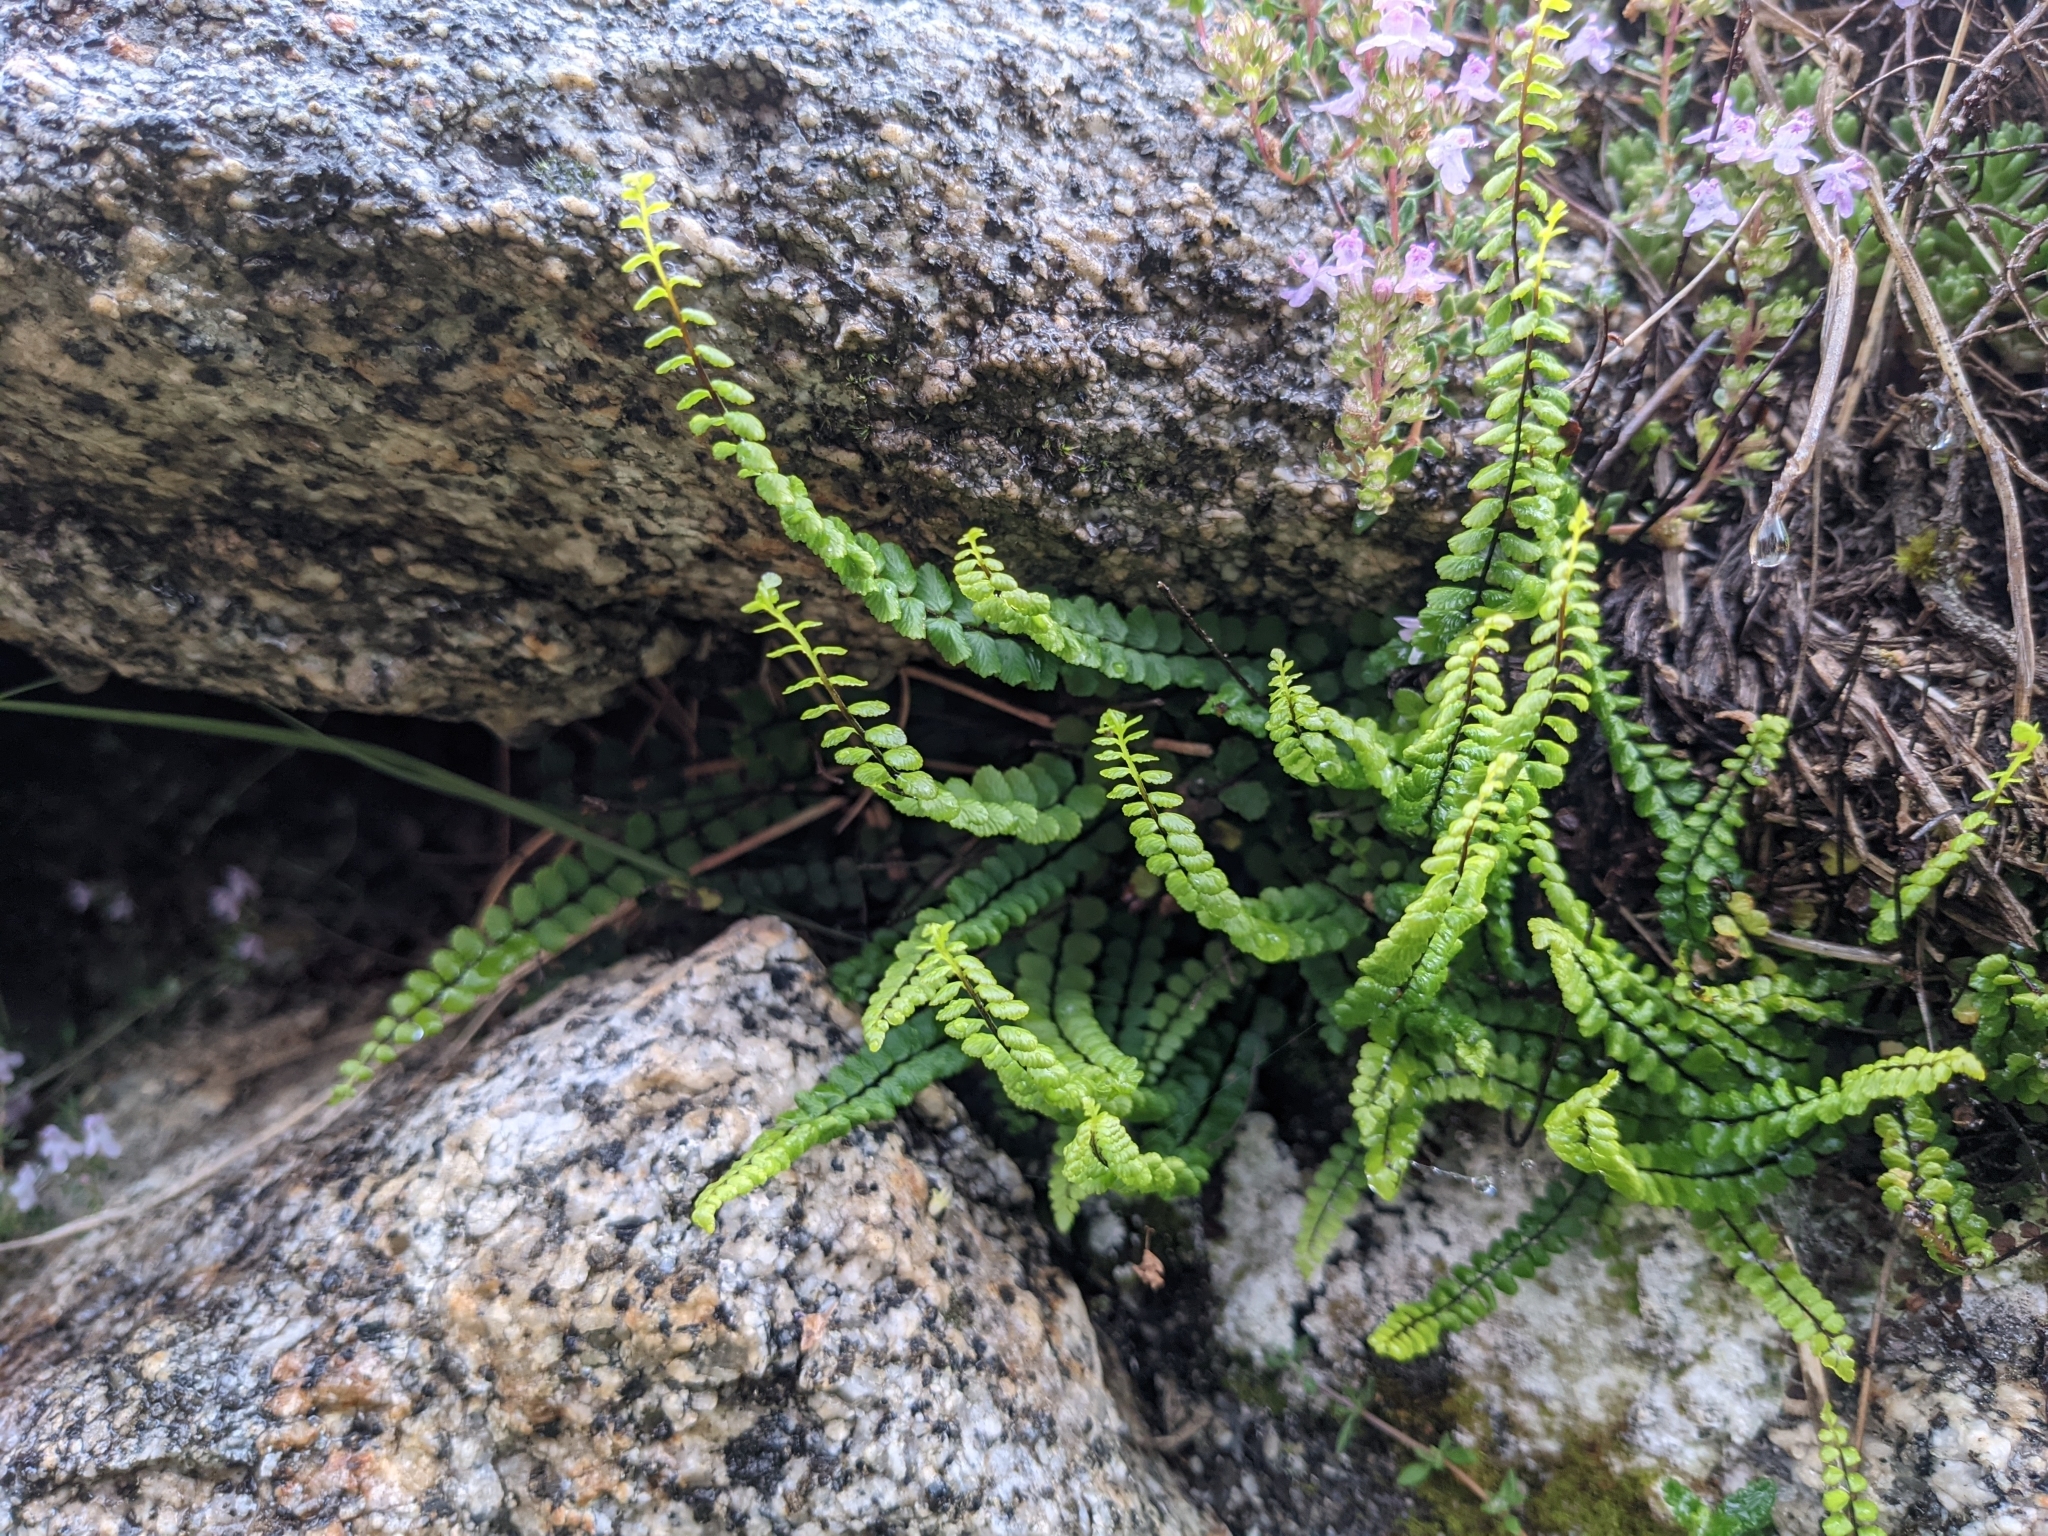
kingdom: Plantae
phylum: Tracheophyta
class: Polypodiopsida
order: Polypodiales
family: Aspleniaceae
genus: Asplenium
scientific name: Asplenium trichomanes
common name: Maidenhair spleenwort
